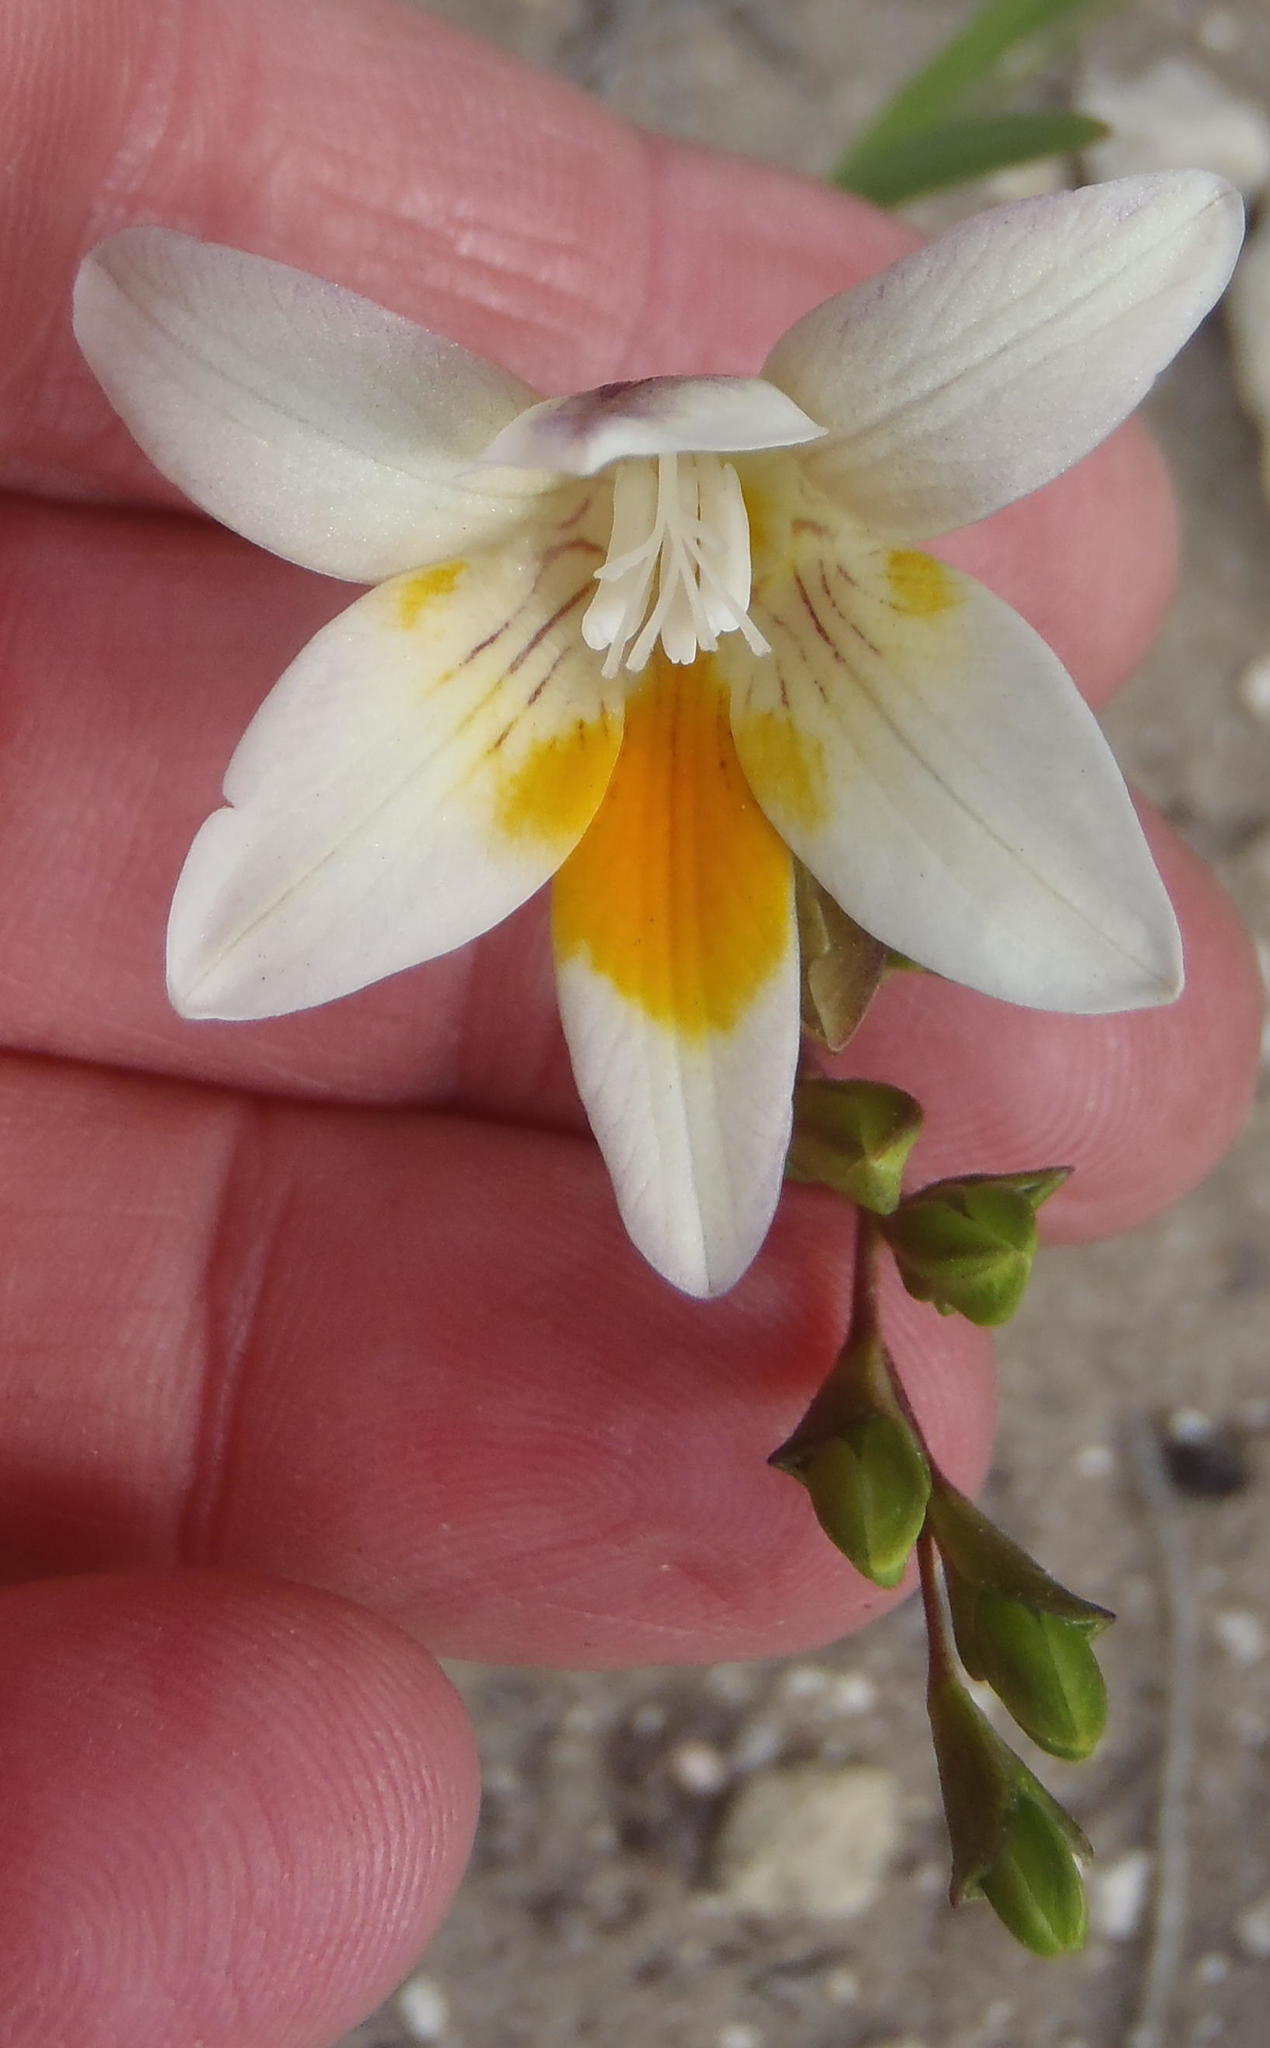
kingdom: Plantae
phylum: Tracheophyta
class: Liliopsida
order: Asparagales
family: Iridaceae
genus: Freesia
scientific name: Freesia leichtlinii
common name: Freesia
